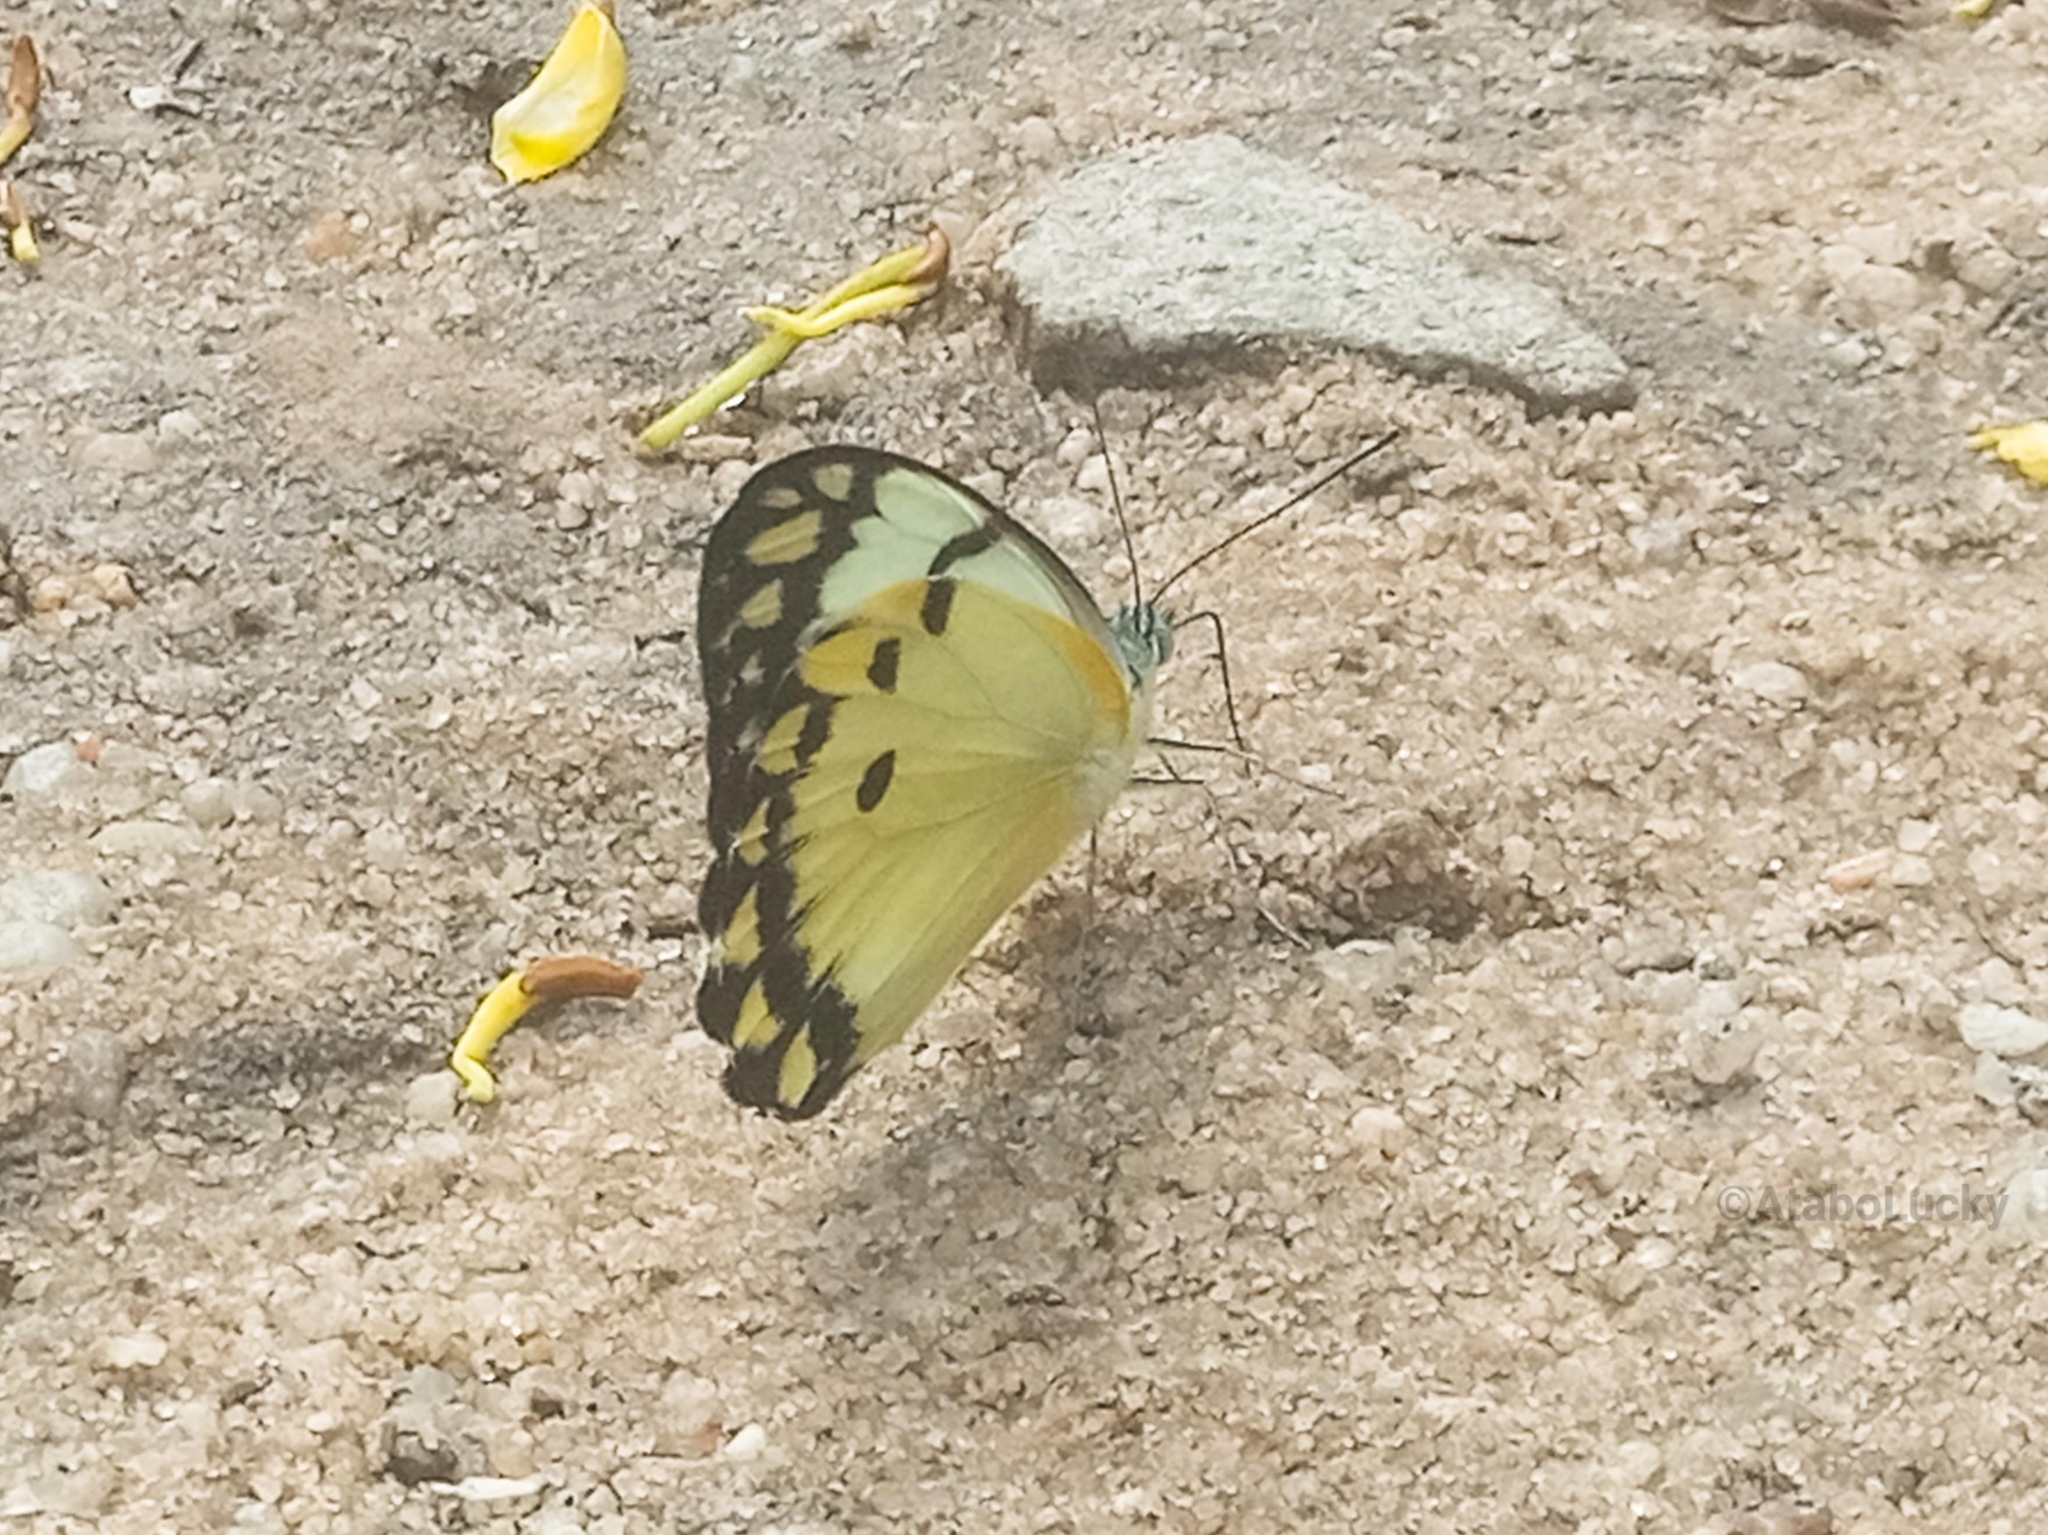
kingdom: Animalia
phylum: Arthropoda
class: Insecta
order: Lepidoptera
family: Pieridae
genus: Belenois
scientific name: Belenois calypso
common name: Calypso caper white
